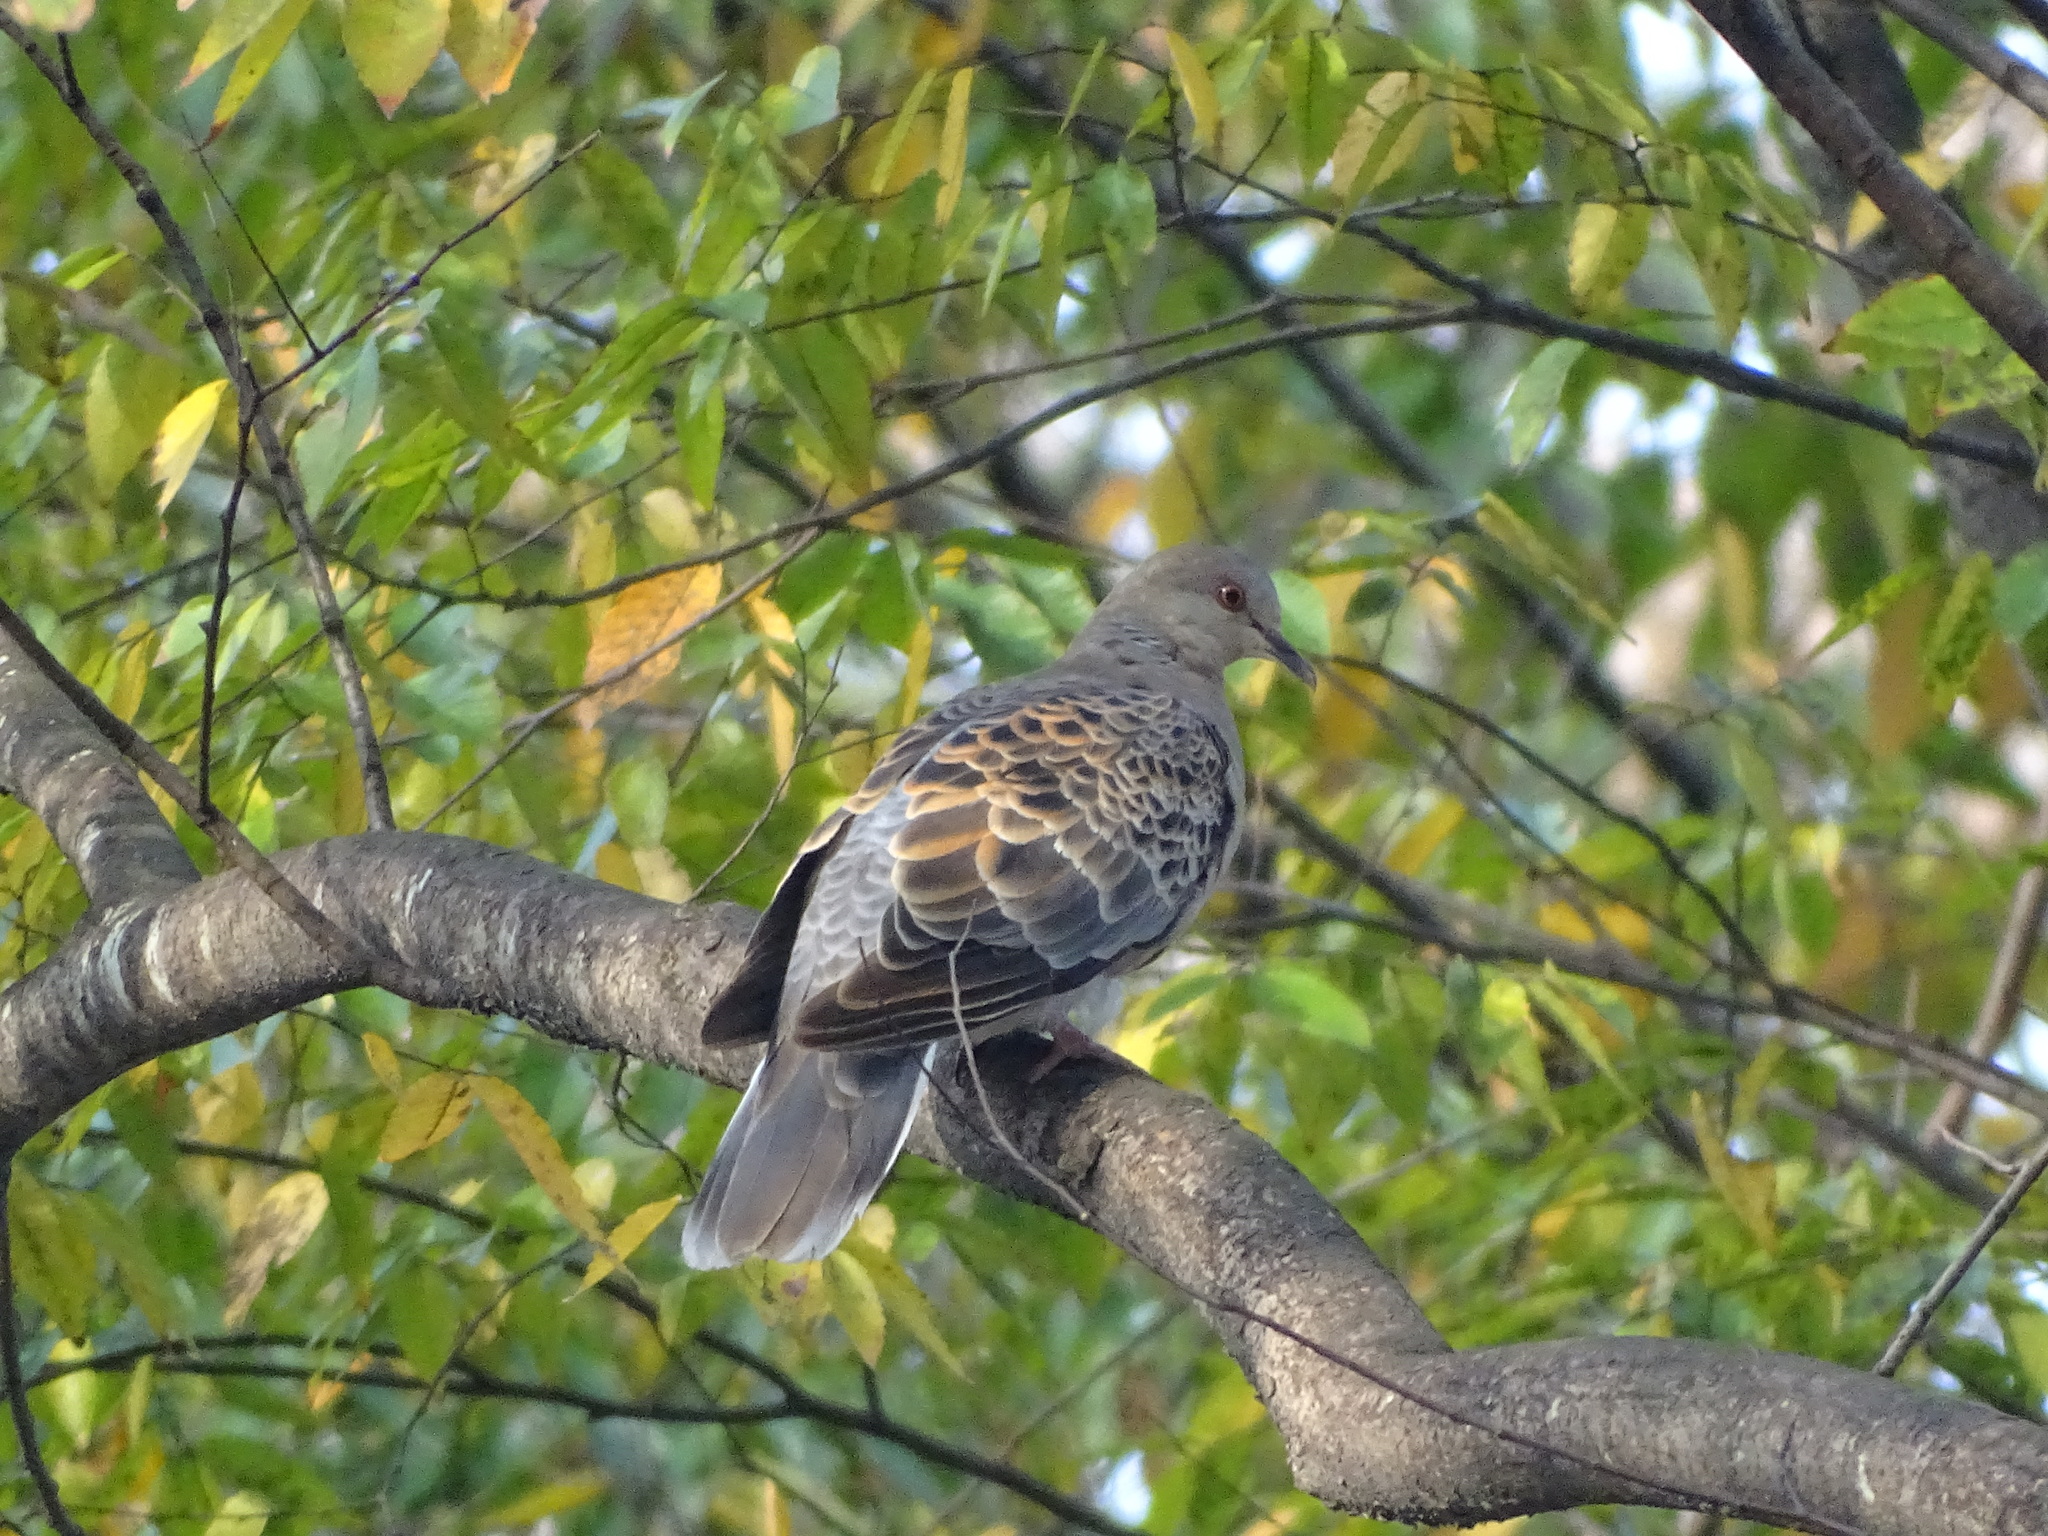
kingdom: Animalia
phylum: Chordata
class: Aves
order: Columbiformes
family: Columbidae
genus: Streptopelia
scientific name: Streptopelia orientalis
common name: Oriental turtle dove
